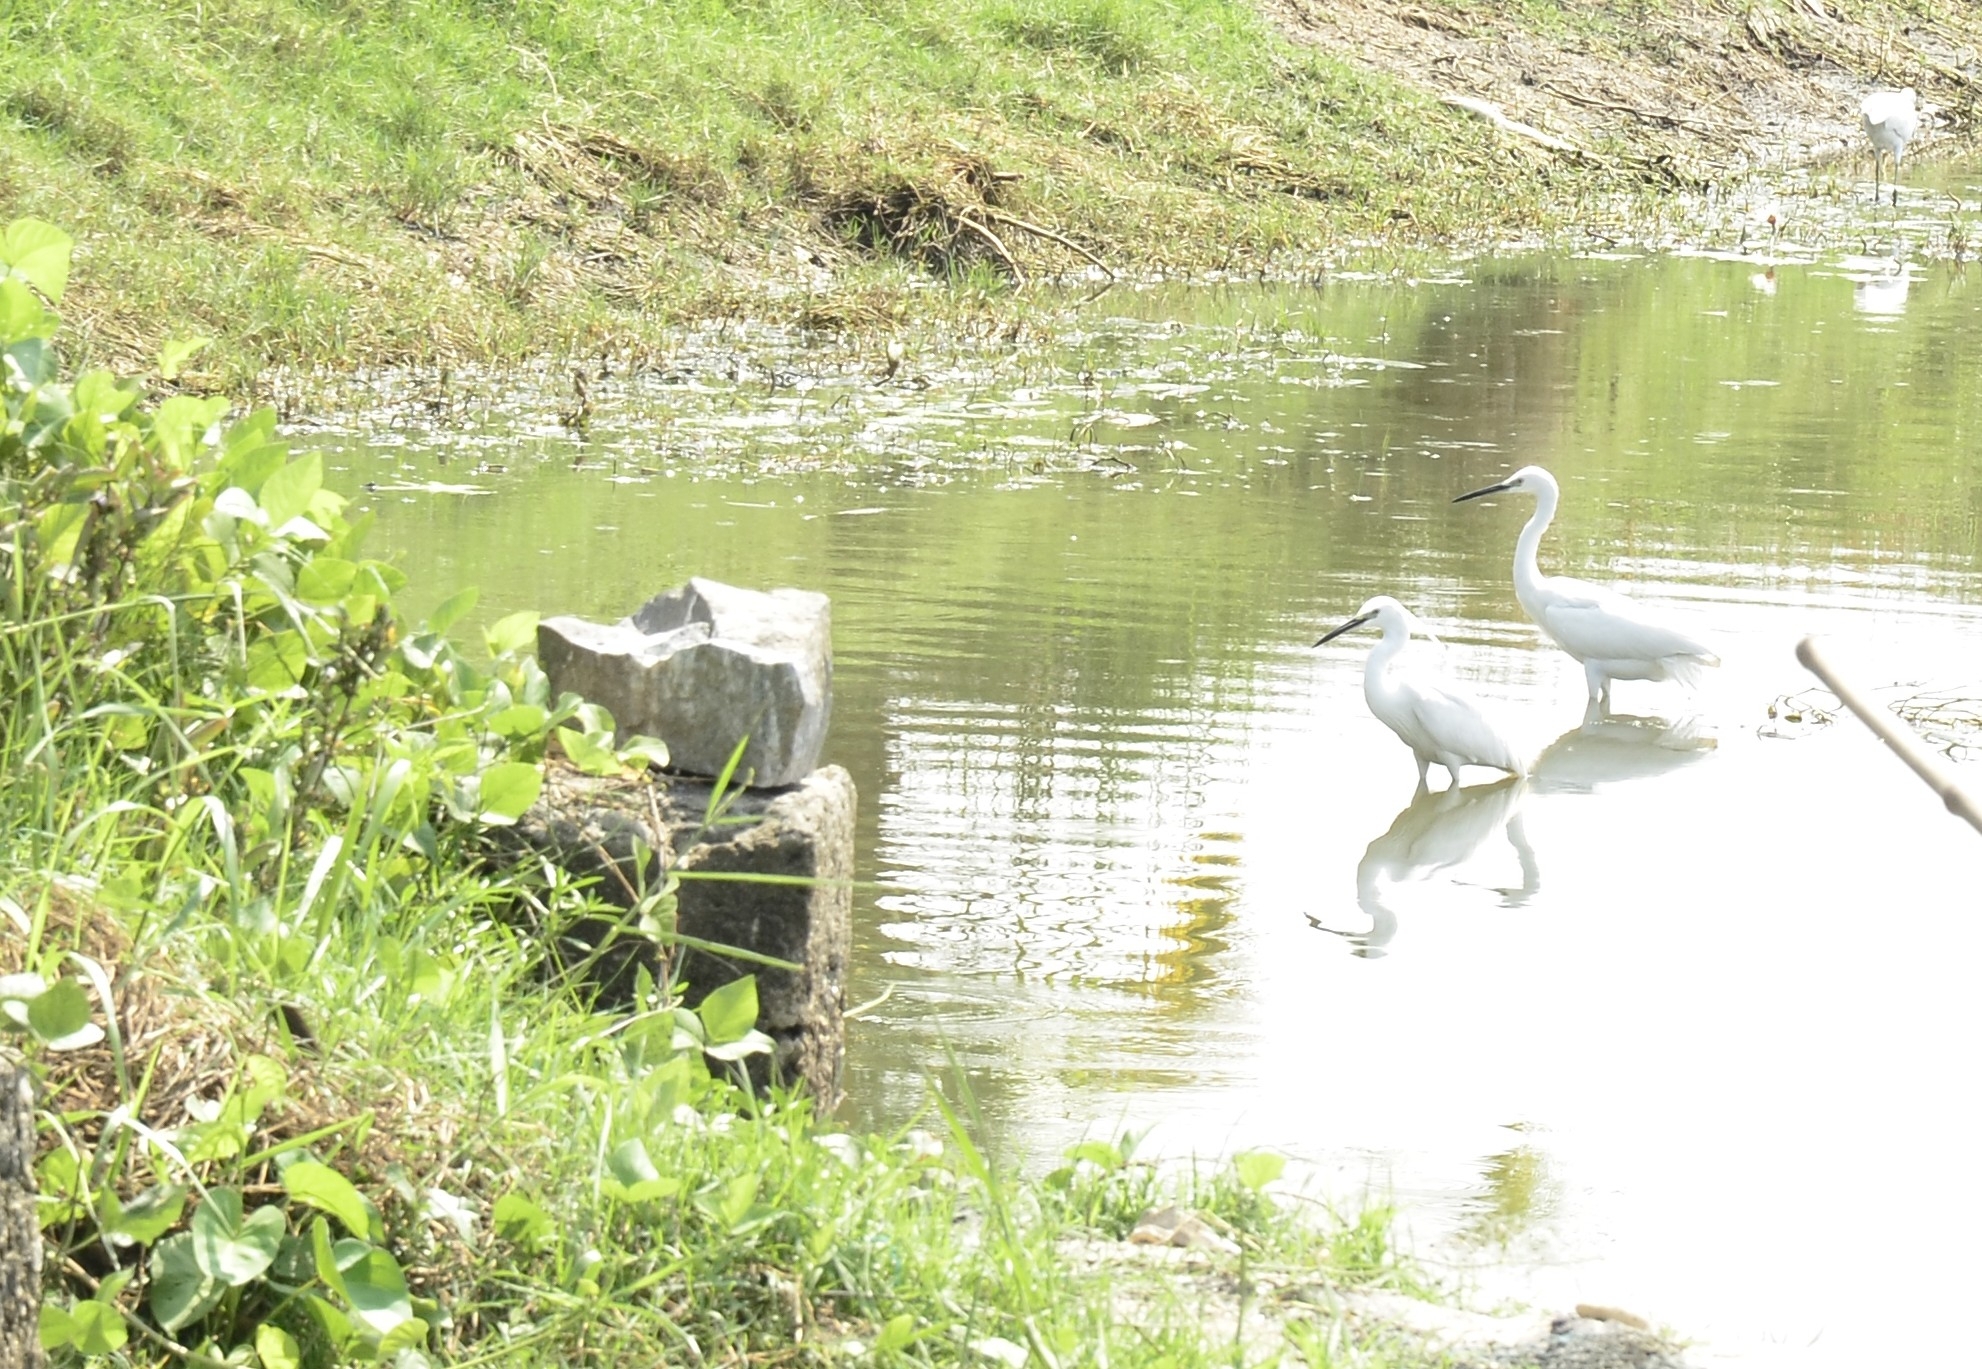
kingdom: Animalia
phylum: Chordata
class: Aves
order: Pelecaniformes
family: Ardeidae
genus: Egretta
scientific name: Egretta garzetta
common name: Little egret
